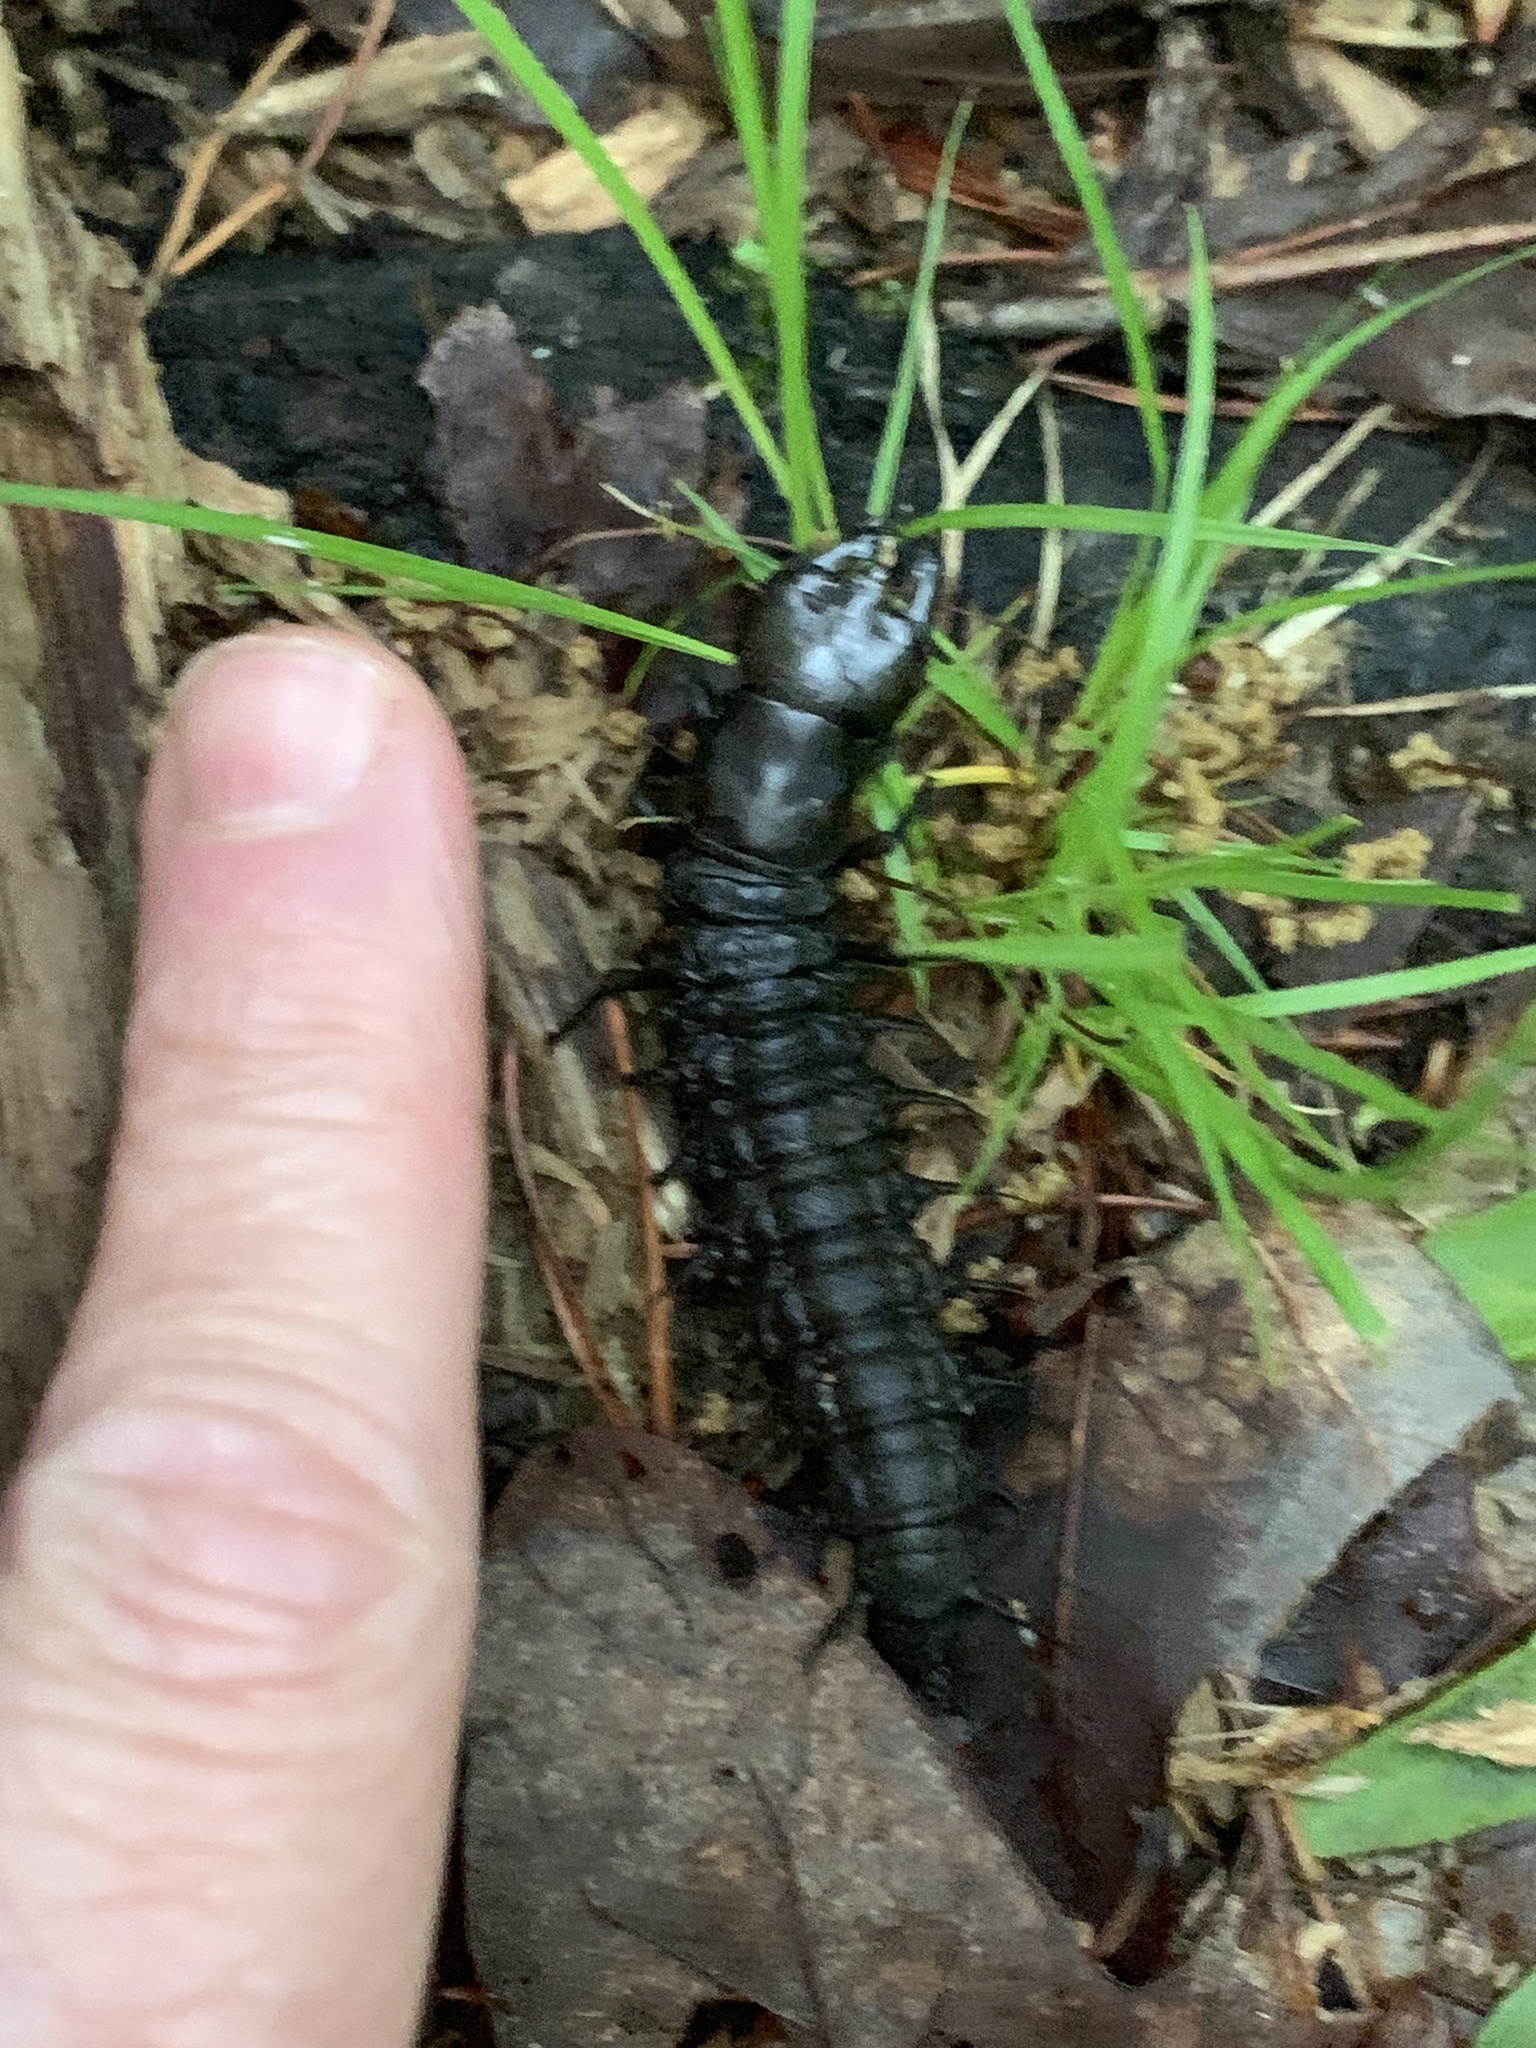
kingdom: Animalia
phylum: Arthropoda
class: Insecta
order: Megaloptera
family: Corydalidae
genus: Corydalus
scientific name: Corydalus cornutus
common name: Dobsonfly
